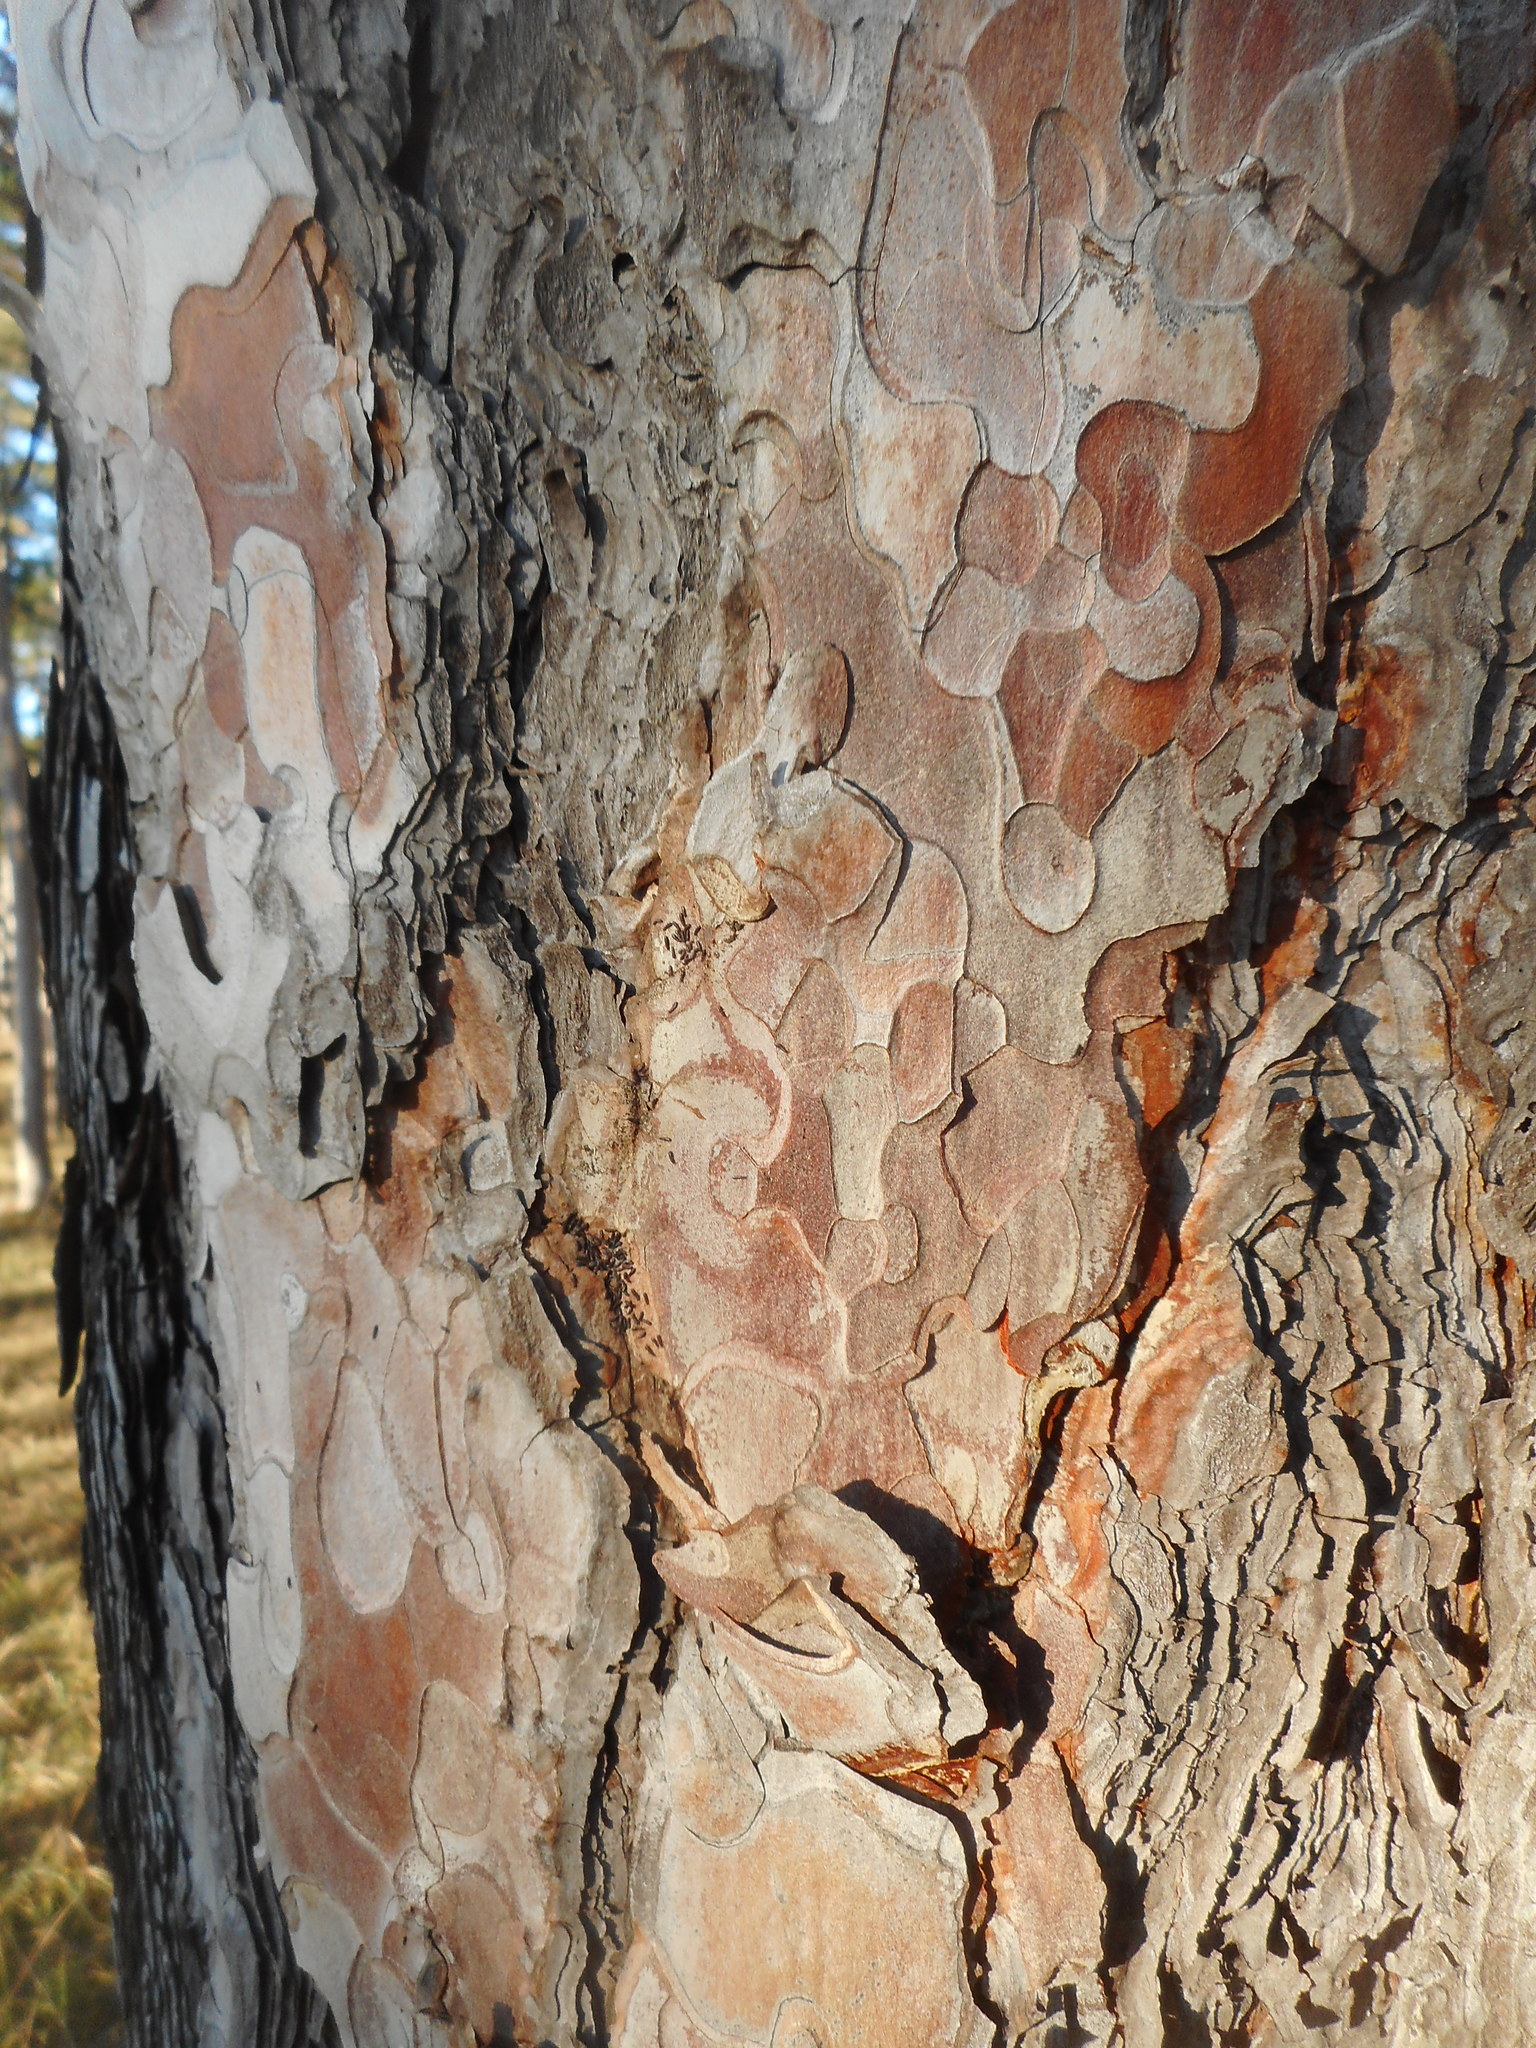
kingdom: Plantae
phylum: Tracheophyta
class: Pinopsida
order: Pinales
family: Pinaceae
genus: Pinus
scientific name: Pinus nigra
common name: Austrian pine
